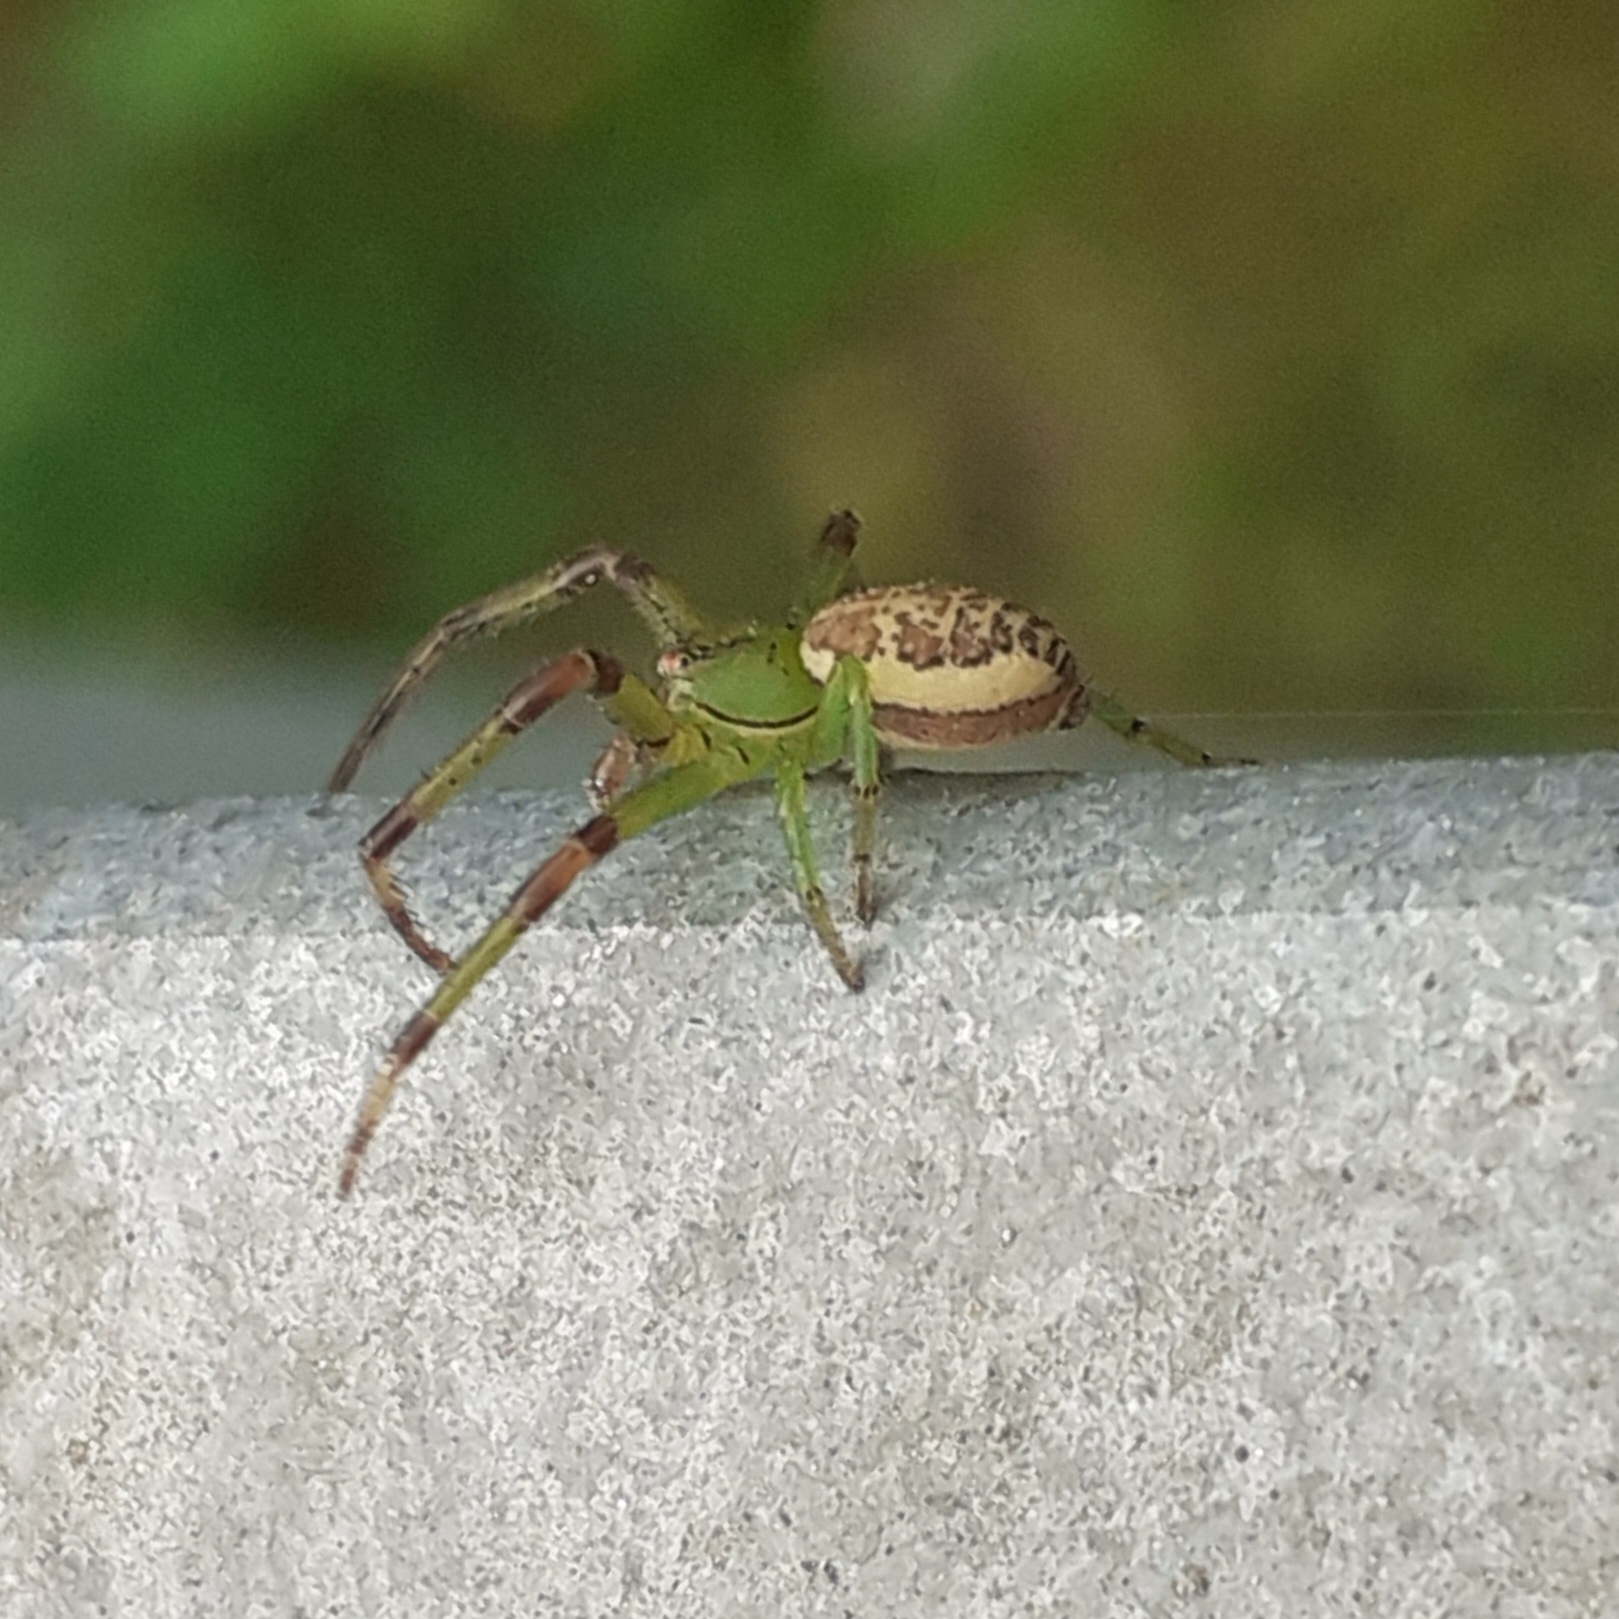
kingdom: Animalia
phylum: Arthropoda
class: Arachnida
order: Araneae
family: Thomisidae
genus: Diaea
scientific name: Diaea dorsata
